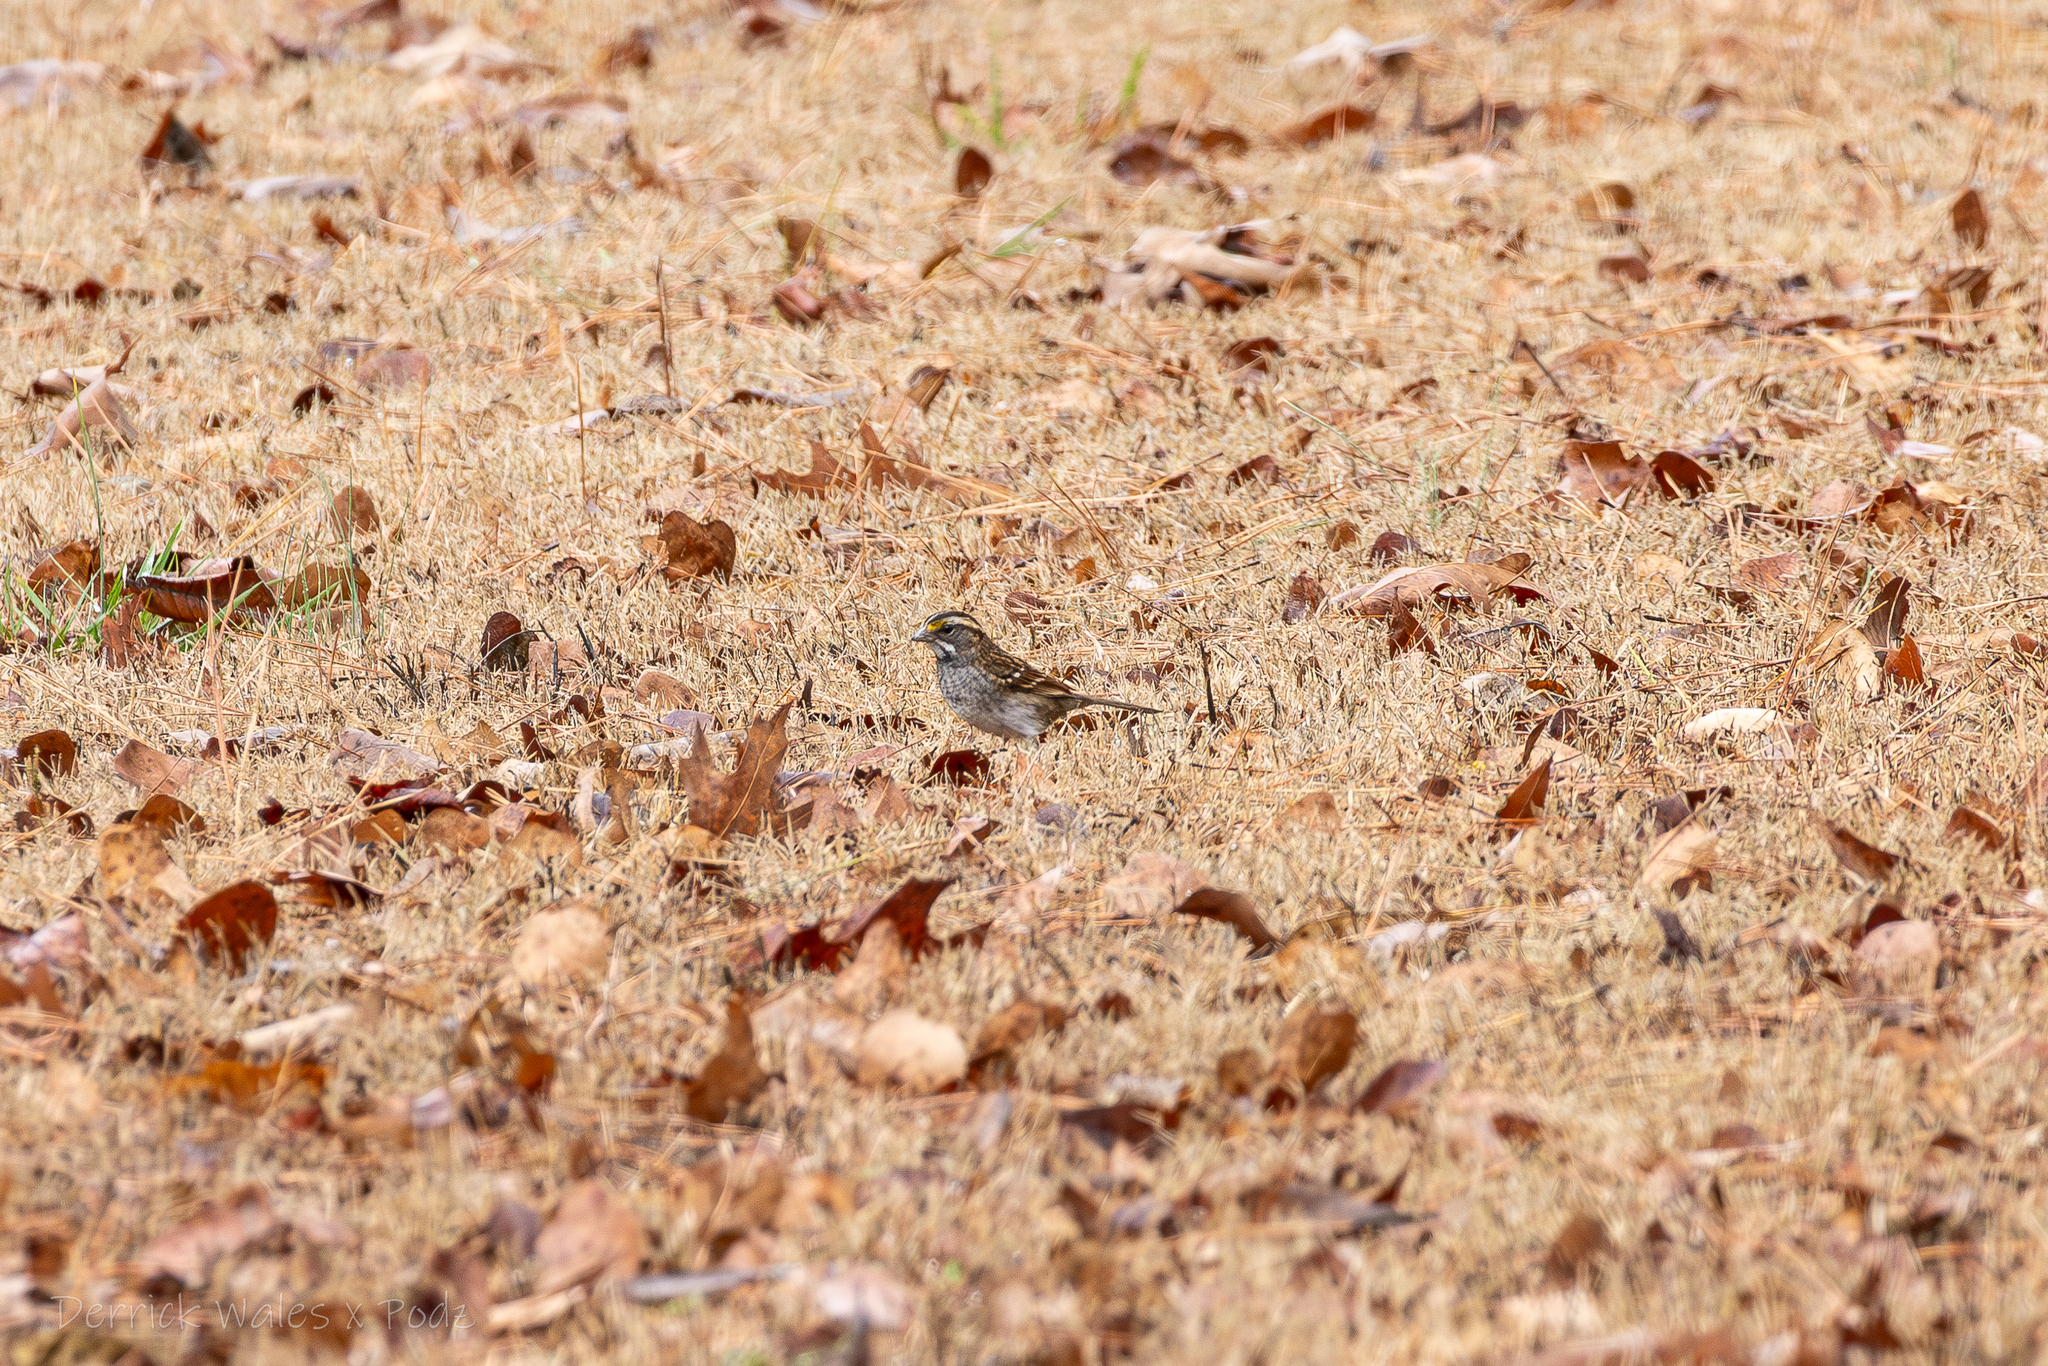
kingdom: Animalia
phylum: Chordata
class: Aves
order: Passeriformes
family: Passerellidae
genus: Zonotrichia
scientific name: Zonotrichia albicollis
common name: White-throated sparrow
